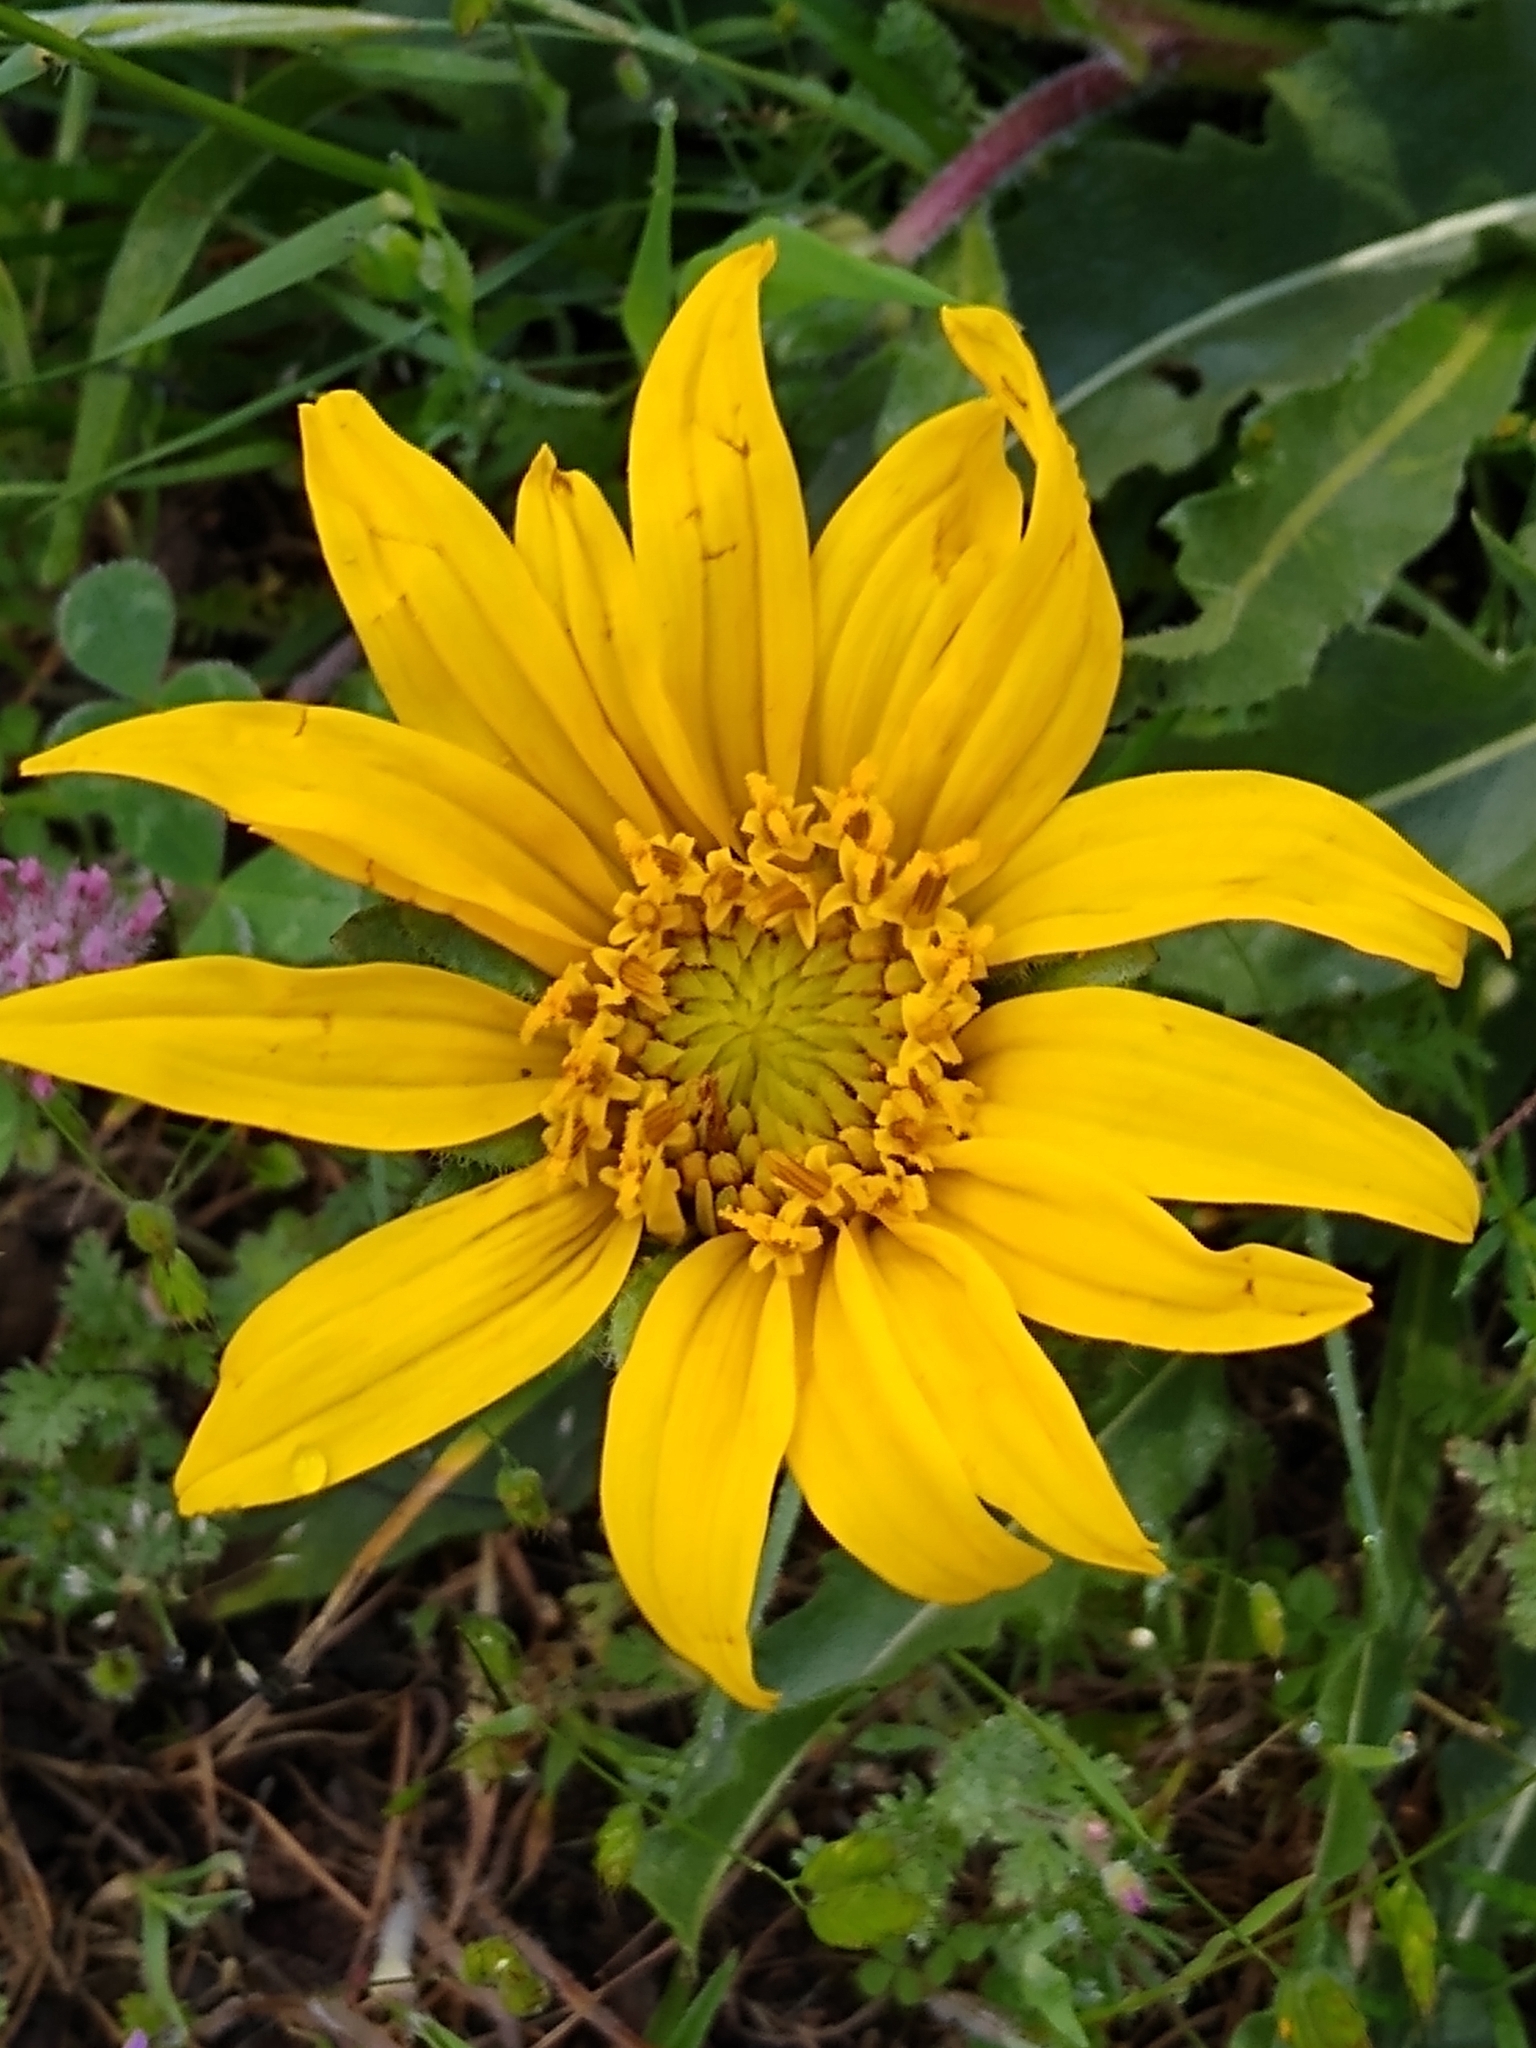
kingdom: Plantae
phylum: Tracheophyta
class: Magnoliopsida
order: Asterales
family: Asteraceae
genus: Wyethia
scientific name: Wyethia angustifolia
